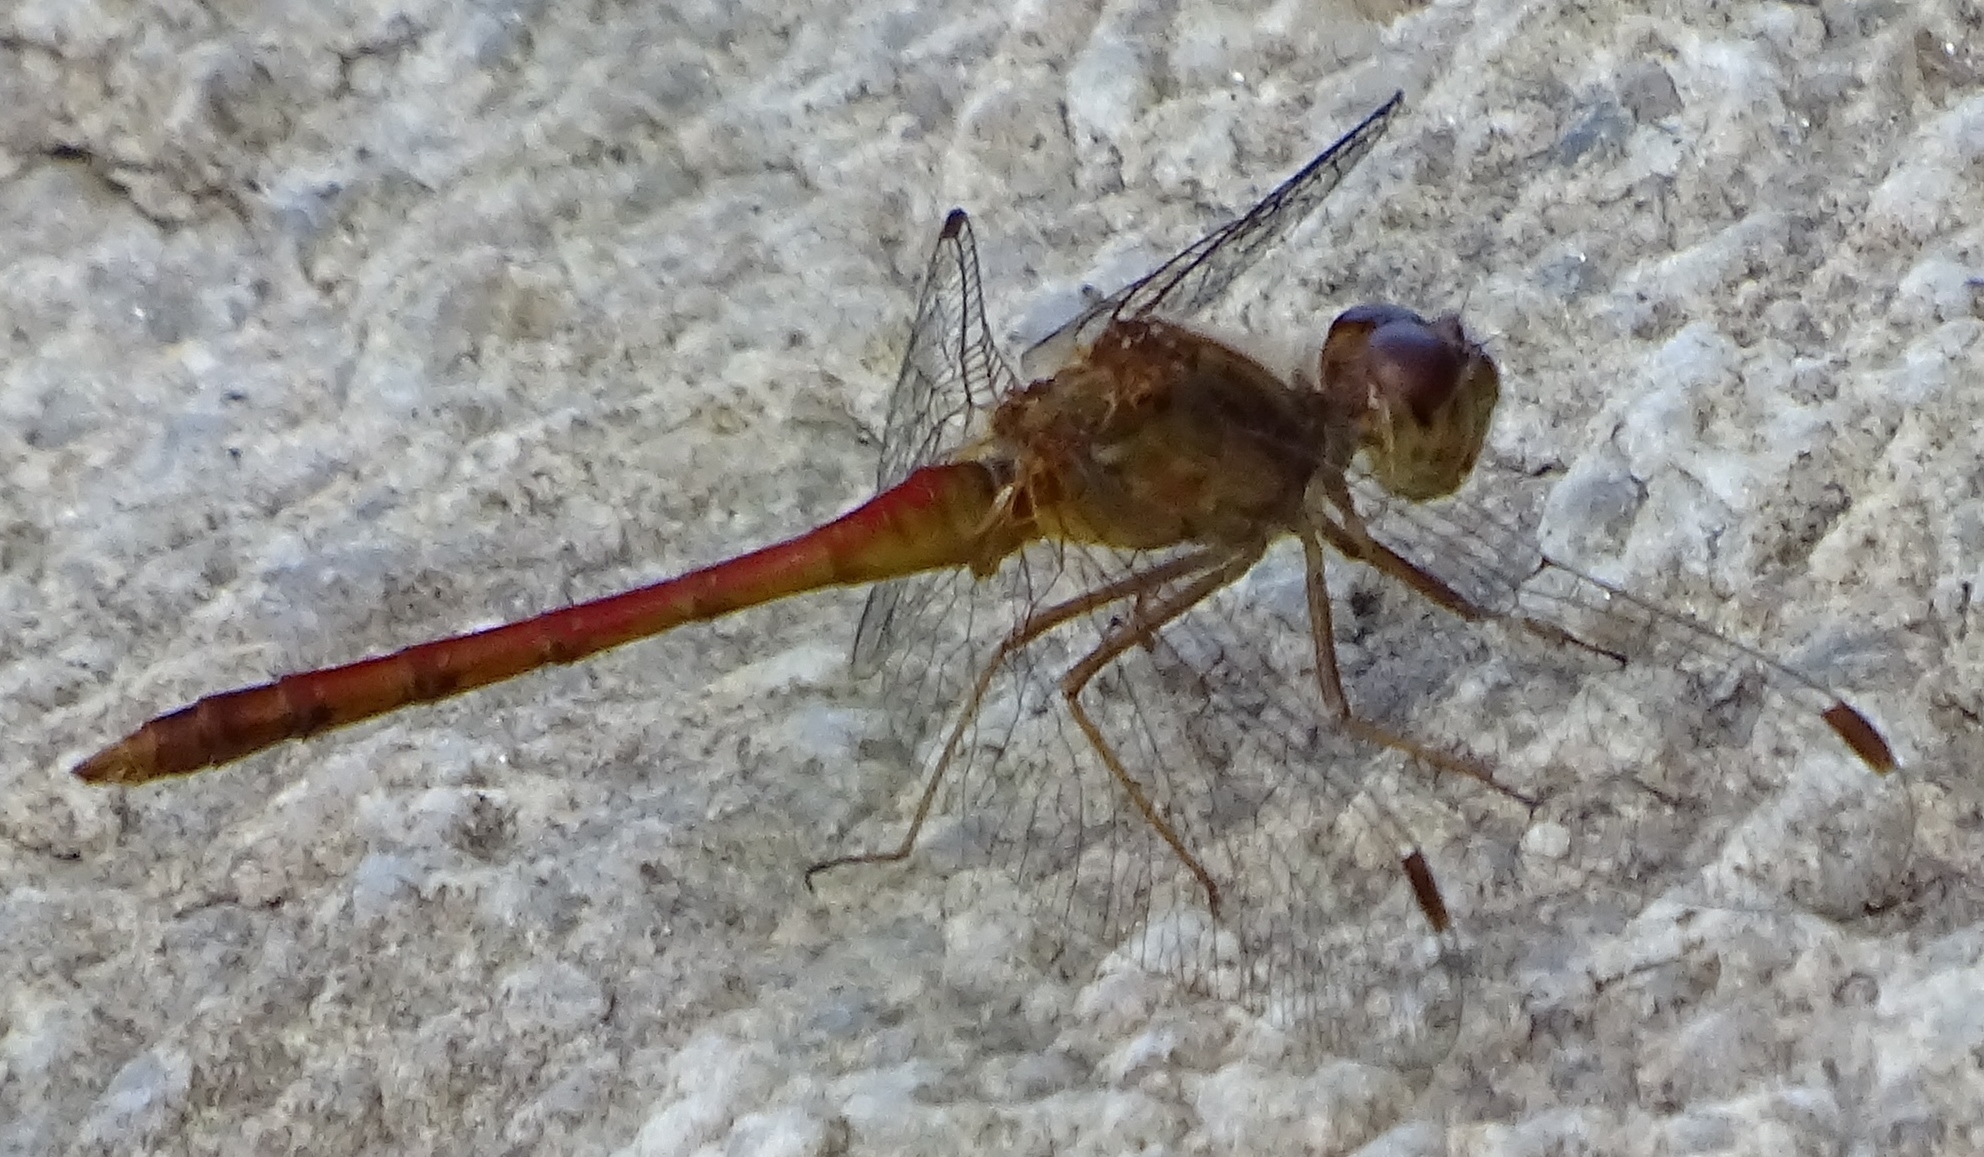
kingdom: Animalia
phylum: Arthropoda
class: Insecta
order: Odonata
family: Libellulidae
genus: Sympetrum
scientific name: Sympetrum vicinum
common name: Autumn meadowhawk
